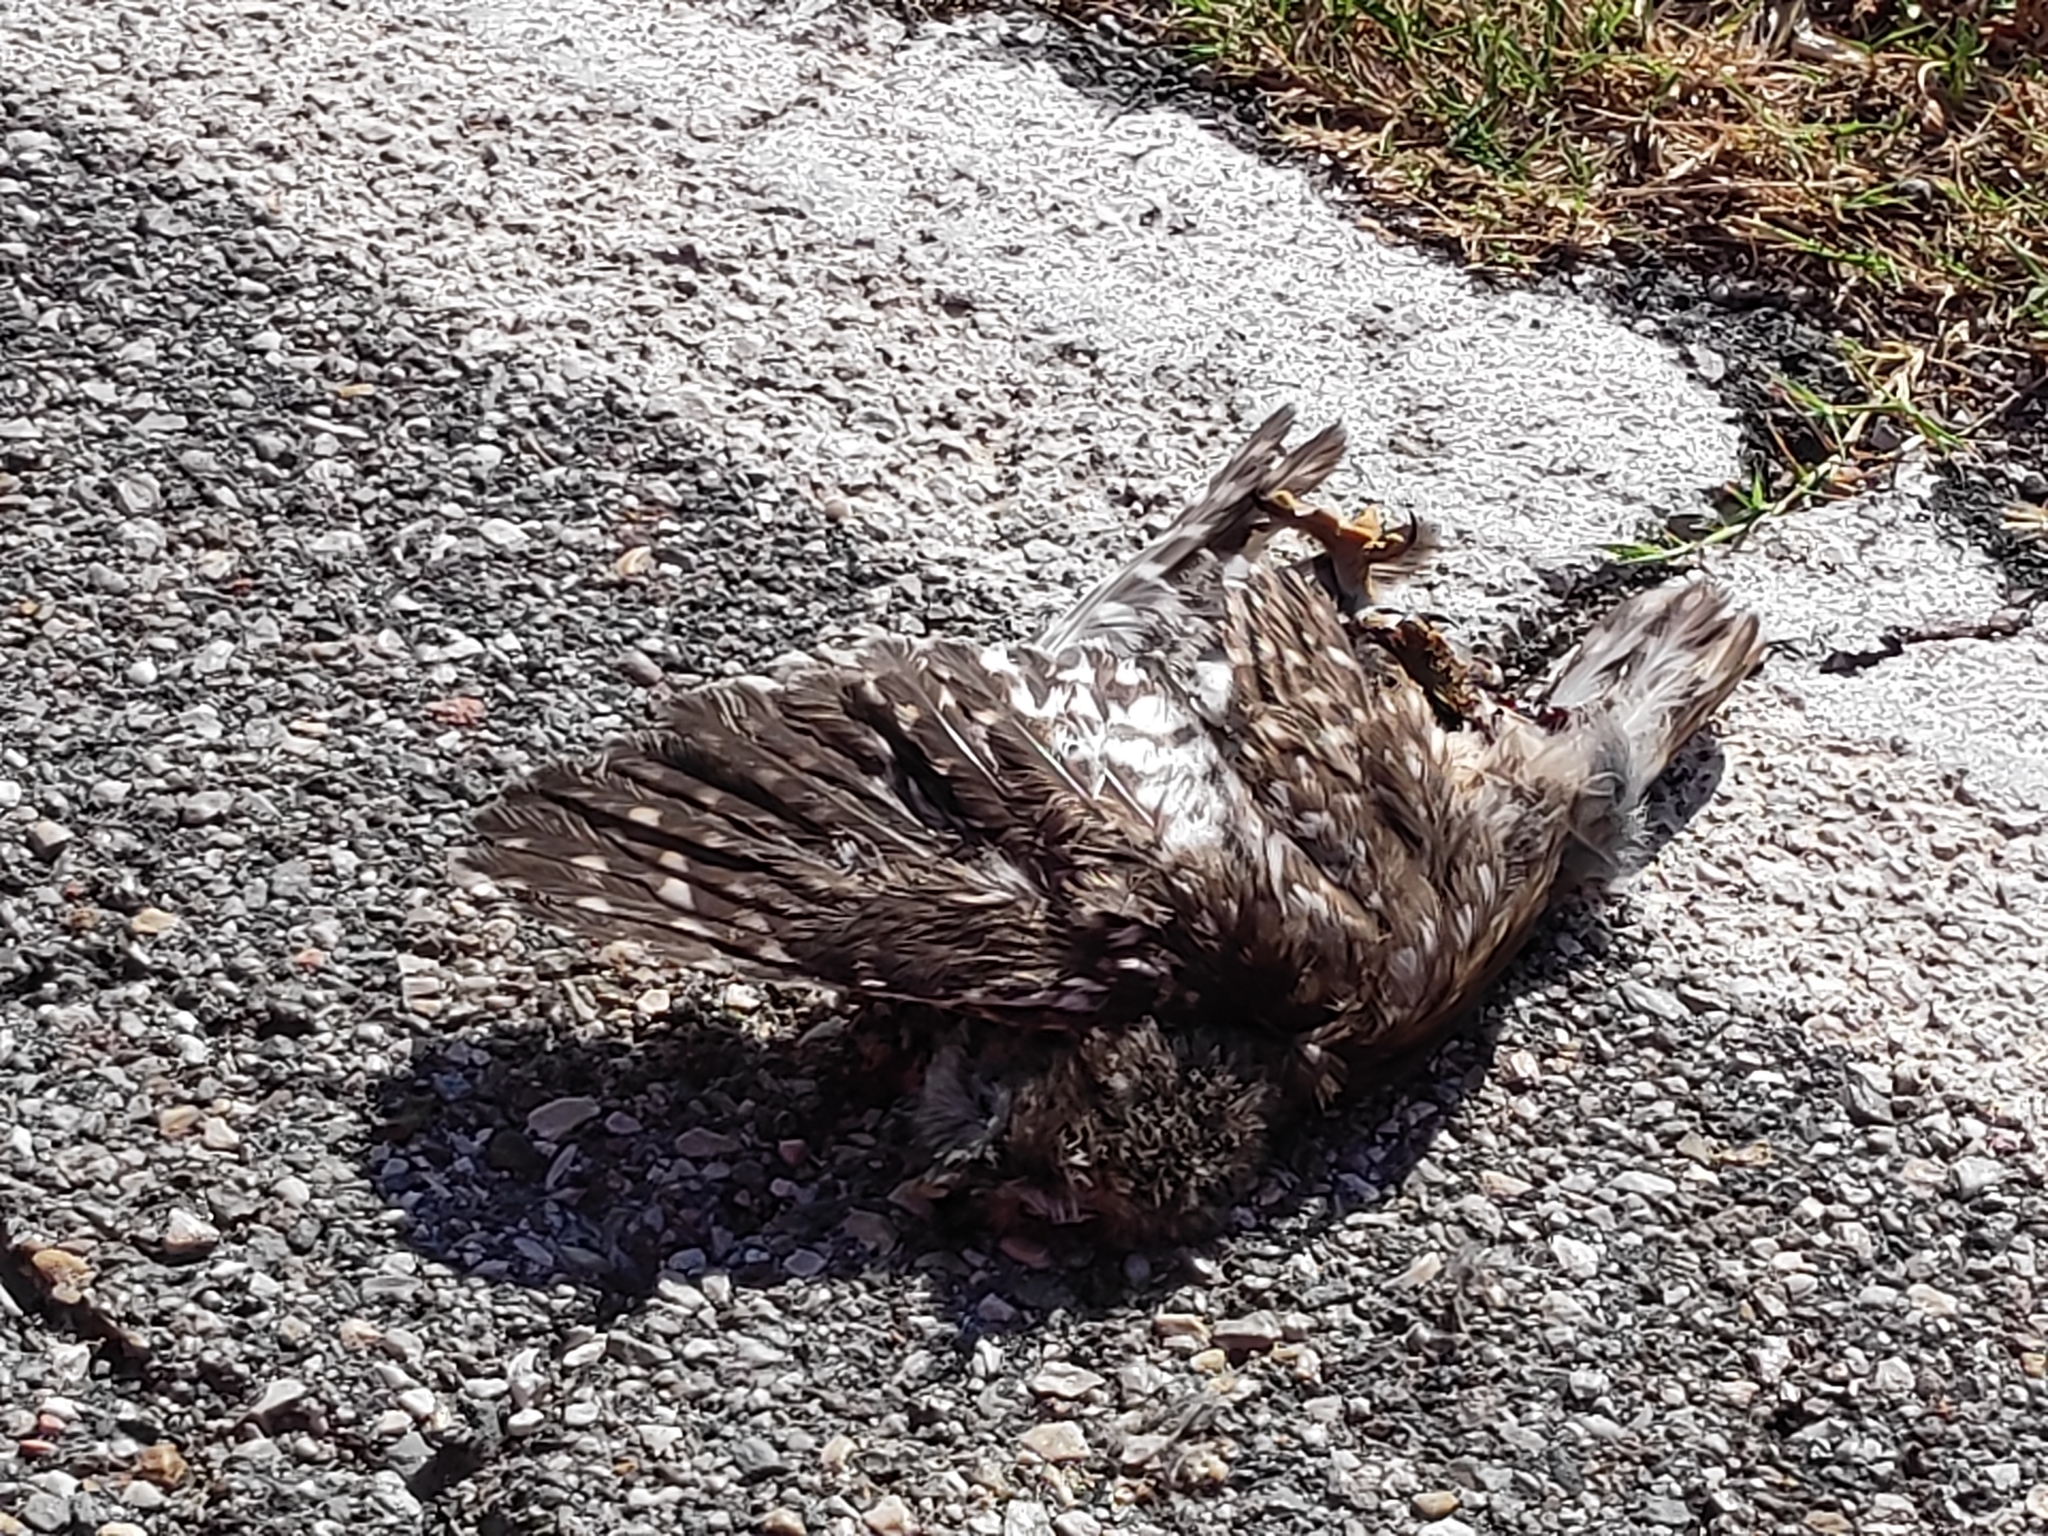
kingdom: Animalia
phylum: Chordata
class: Aves
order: Strigiformes
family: Strigidae
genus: Athene
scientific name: Athene noctua
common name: Little owl
